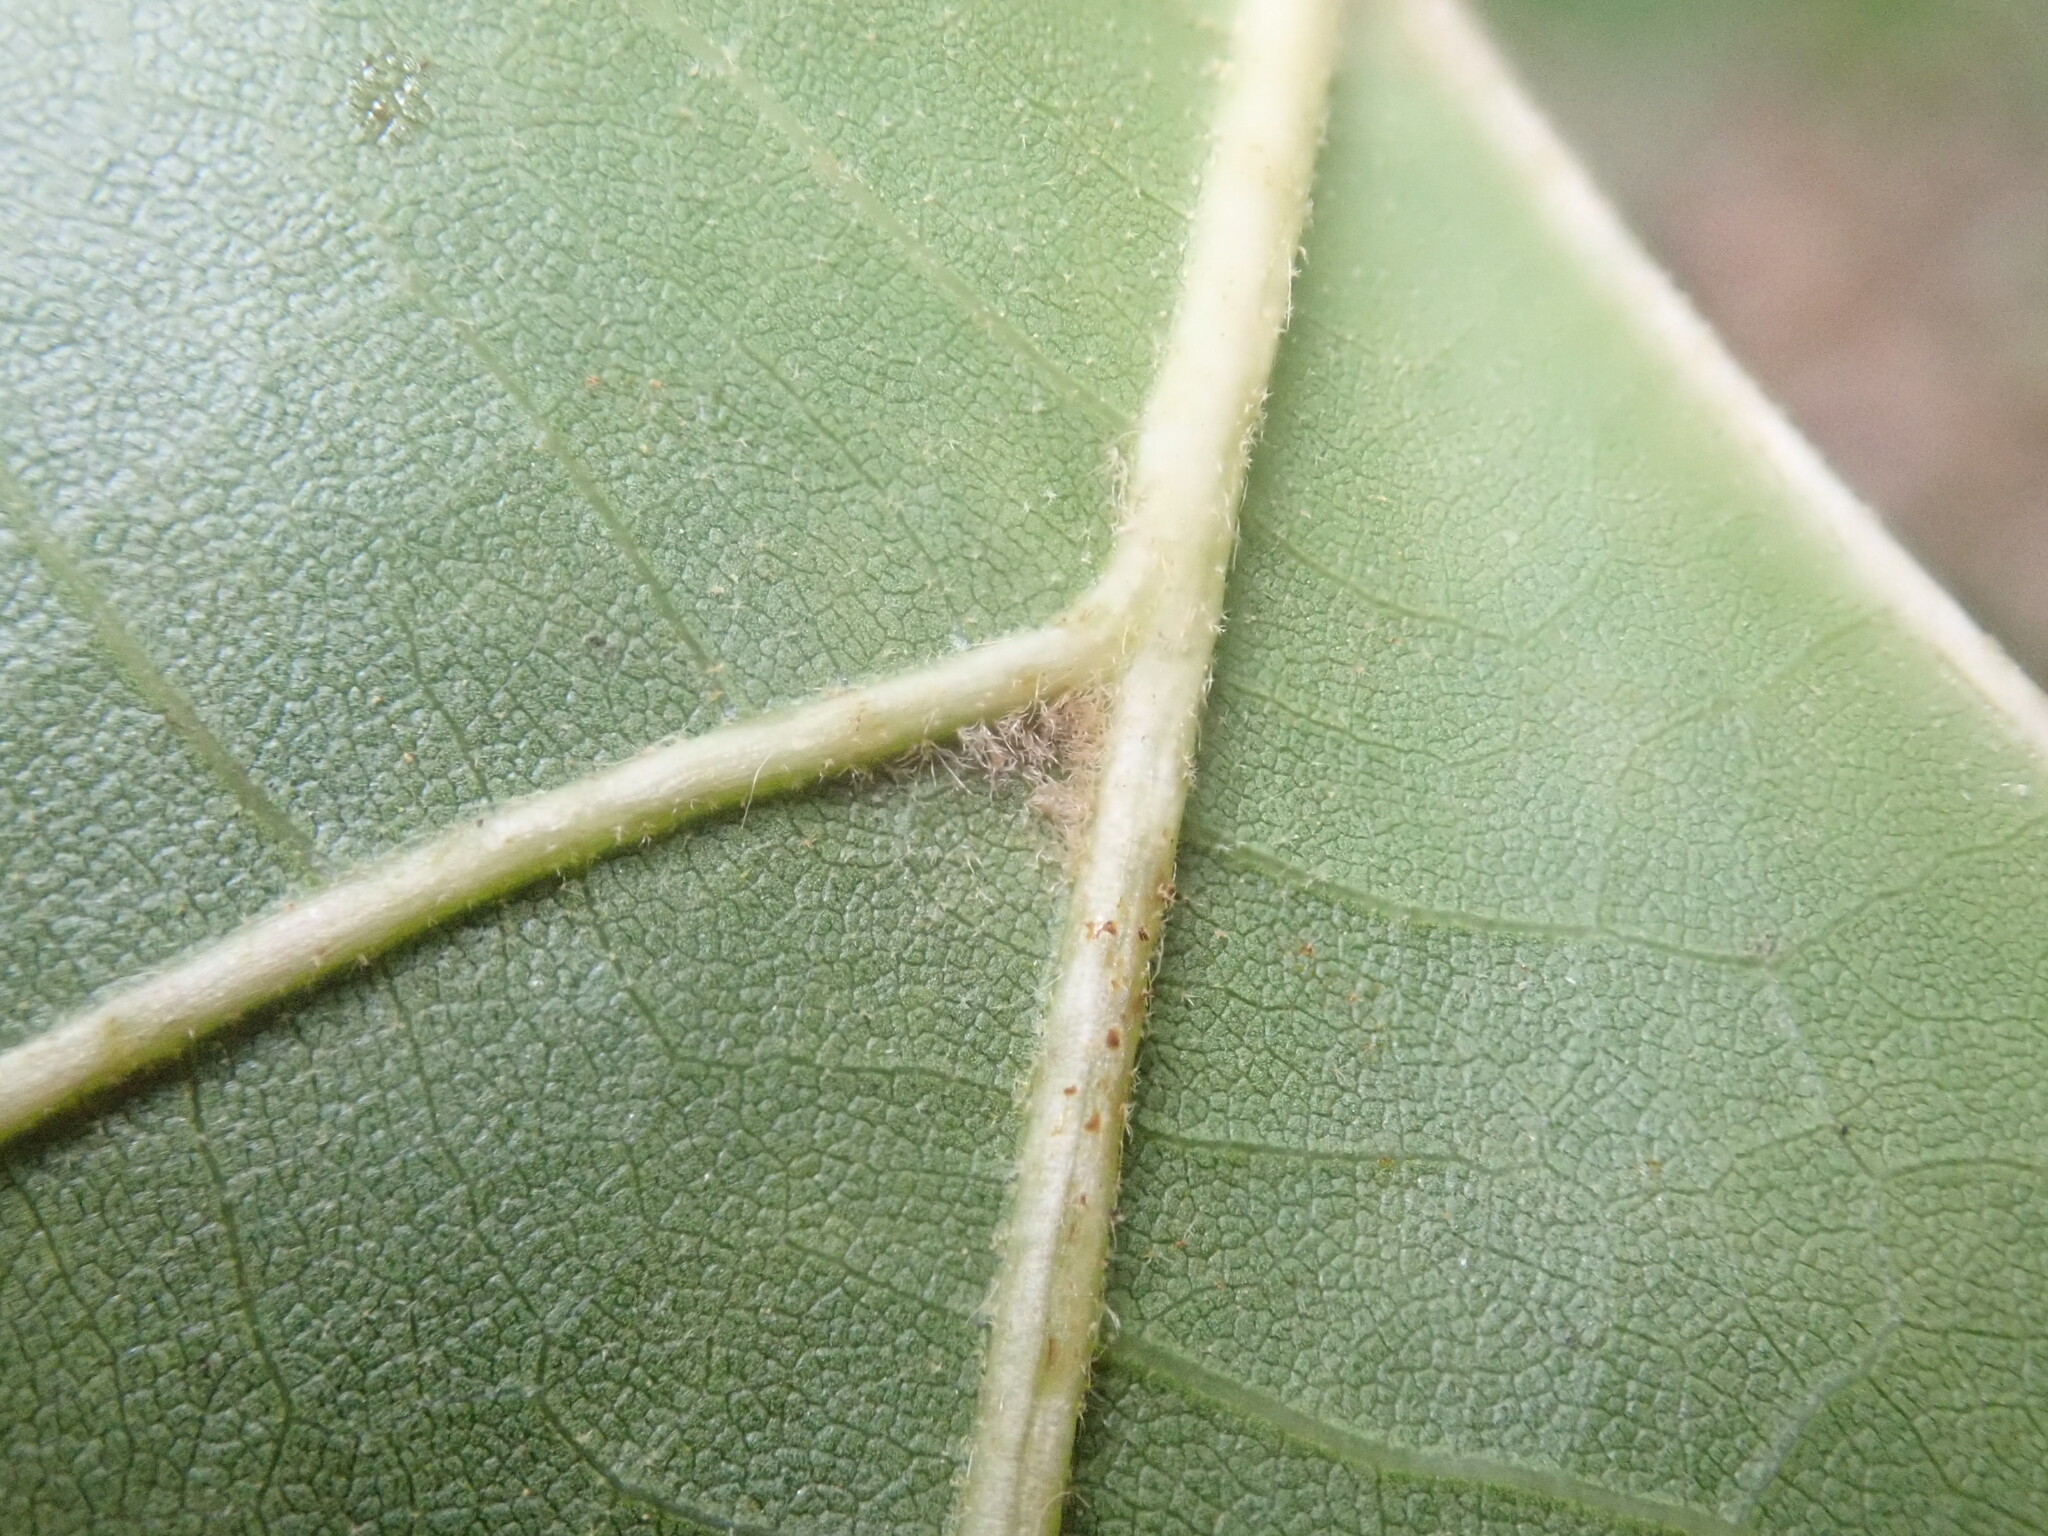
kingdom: Plantae
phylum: Tracheophyta
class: Magnoliopsida
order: Fagales
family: Fagaceae
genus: Quercus
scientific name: Quercus velutina
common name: Black oak
